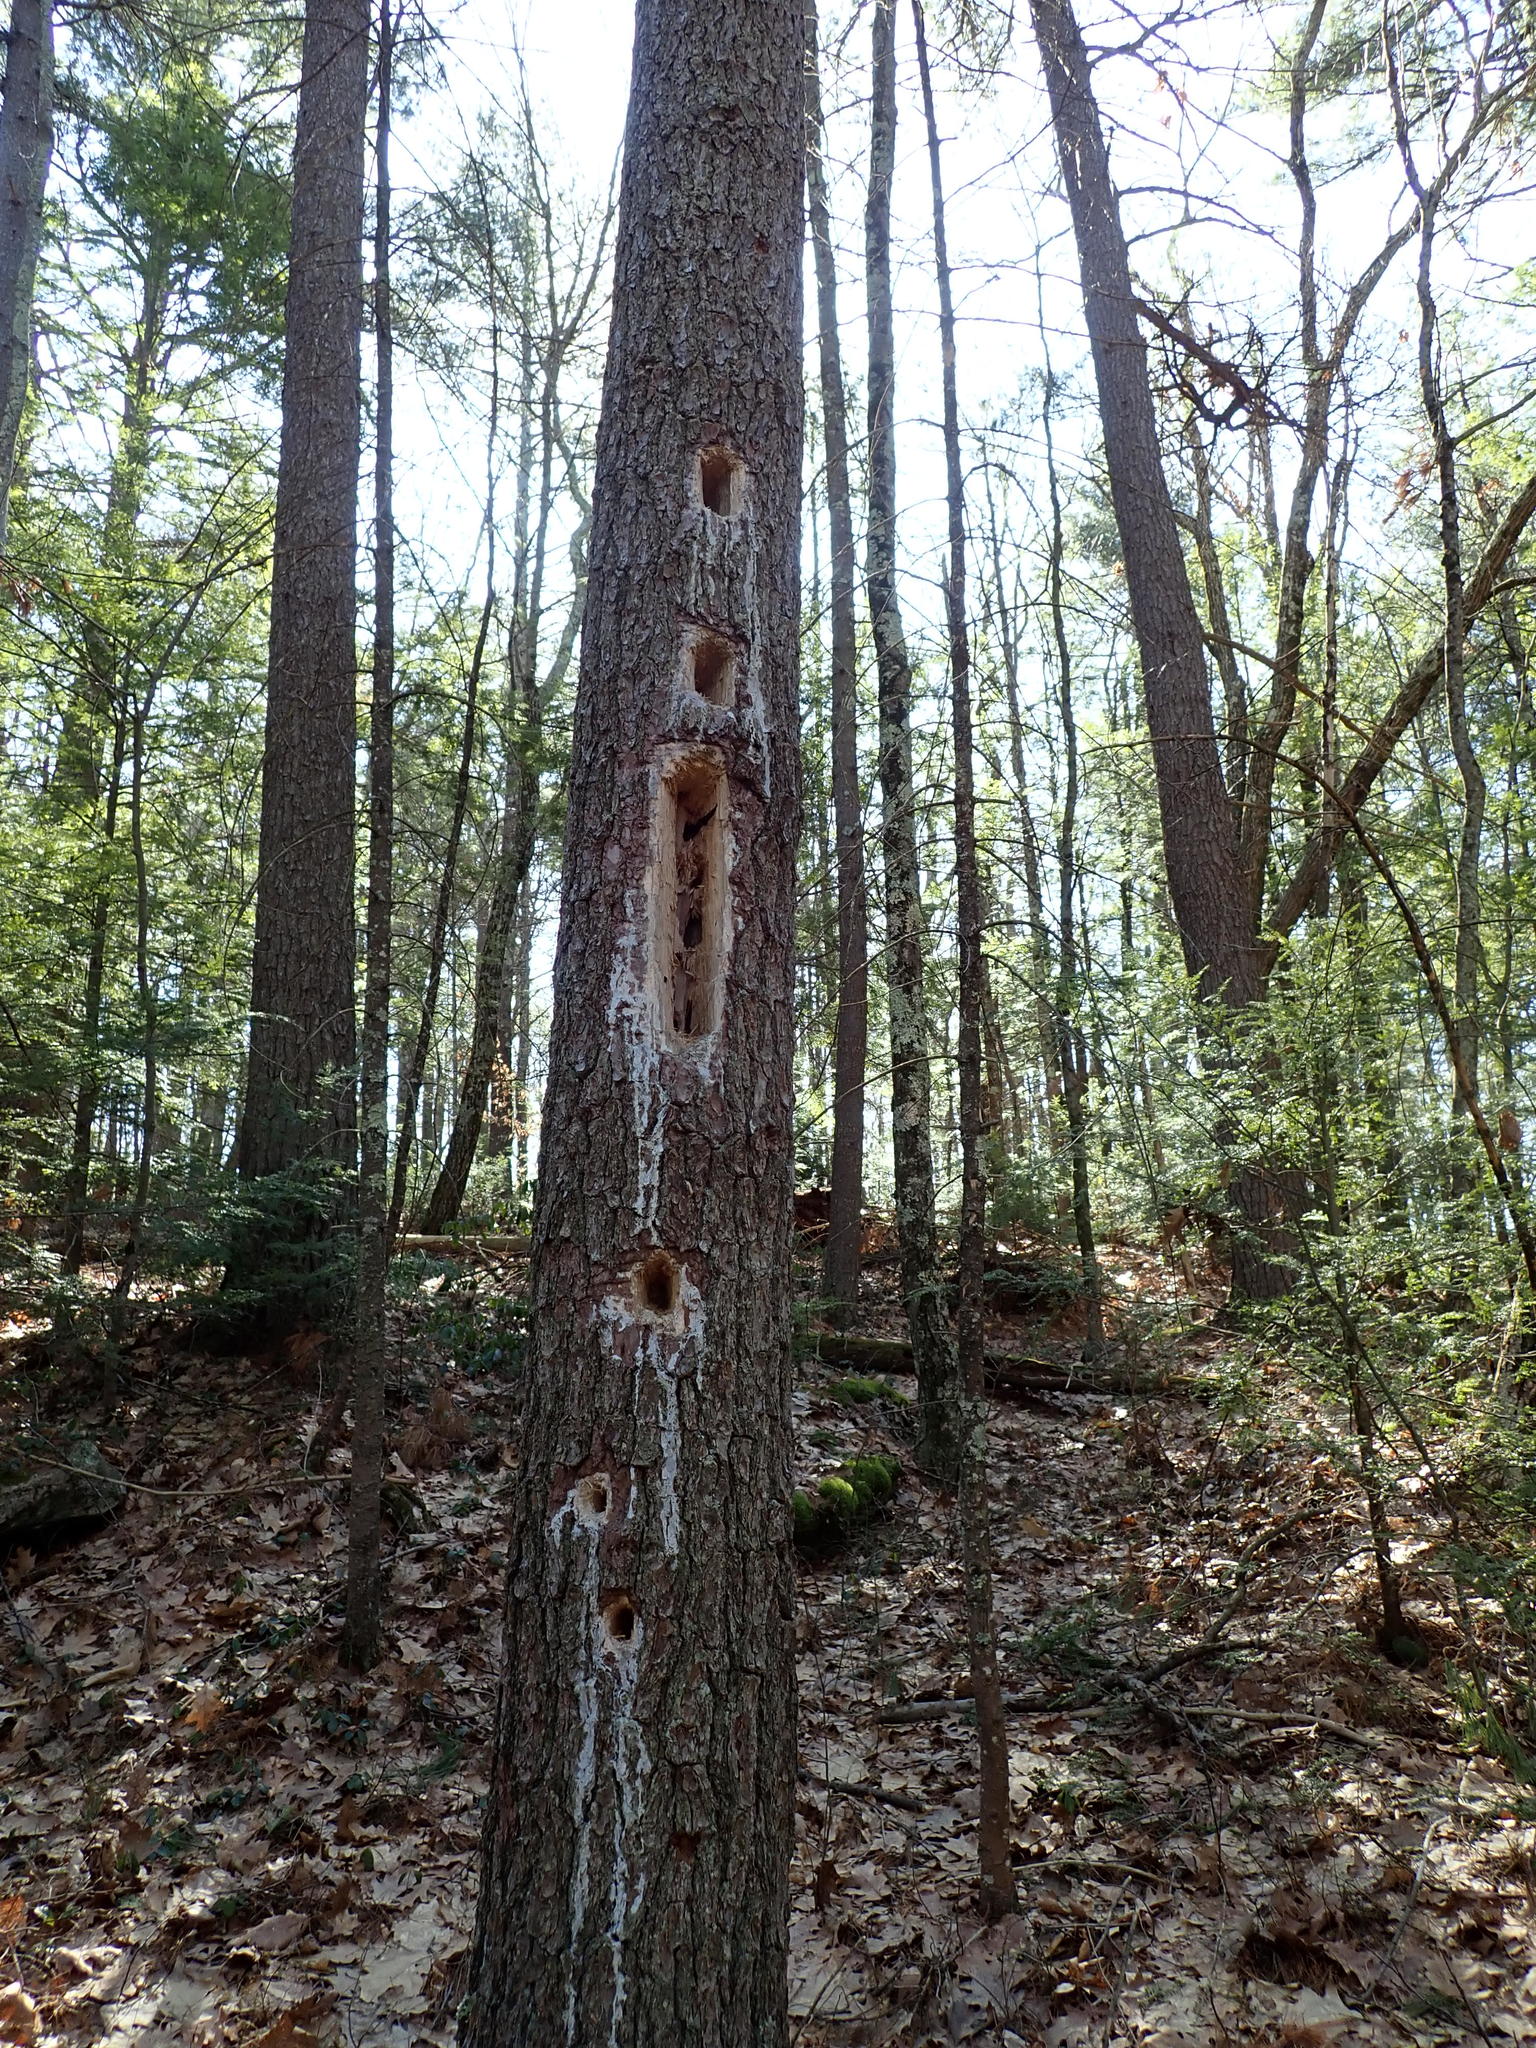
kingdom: Animalia
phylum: Chordata
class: Aves
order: Piciformes
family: Picidae
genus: Dryocopus
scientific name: Dryocopus pileatus
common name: Pileated woodpecker
